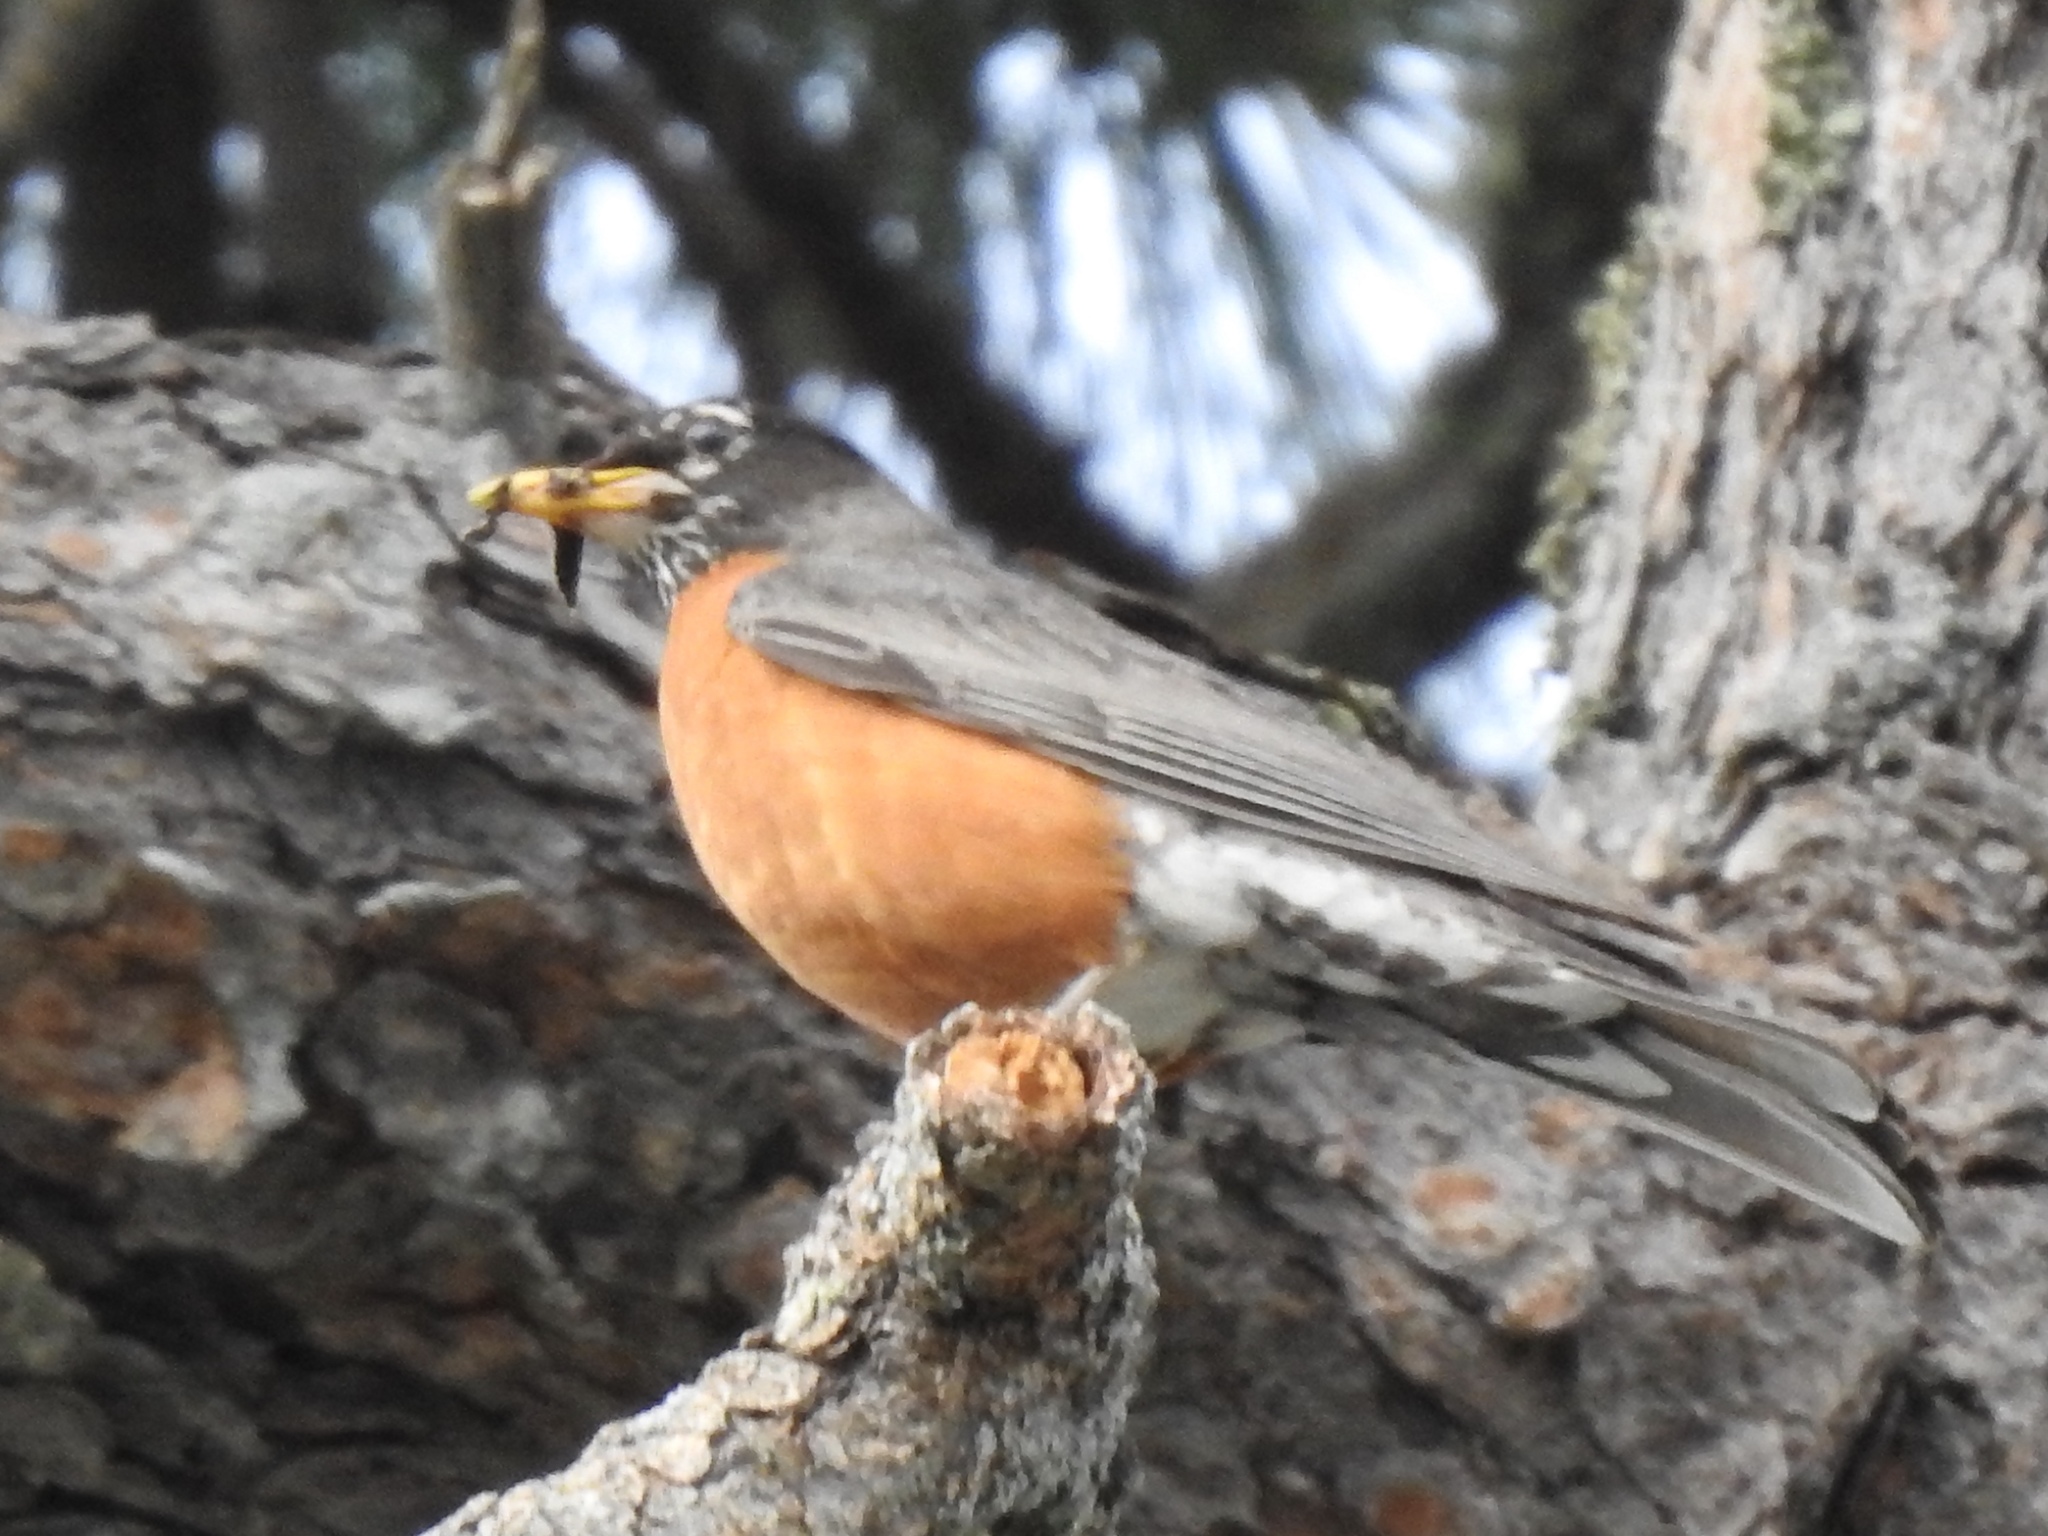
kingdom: Animalia
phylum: Chordata
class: Aves
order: Passeriformes
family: Turdidae
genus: Turdus
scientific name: Turdus migratorius
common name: American robin
